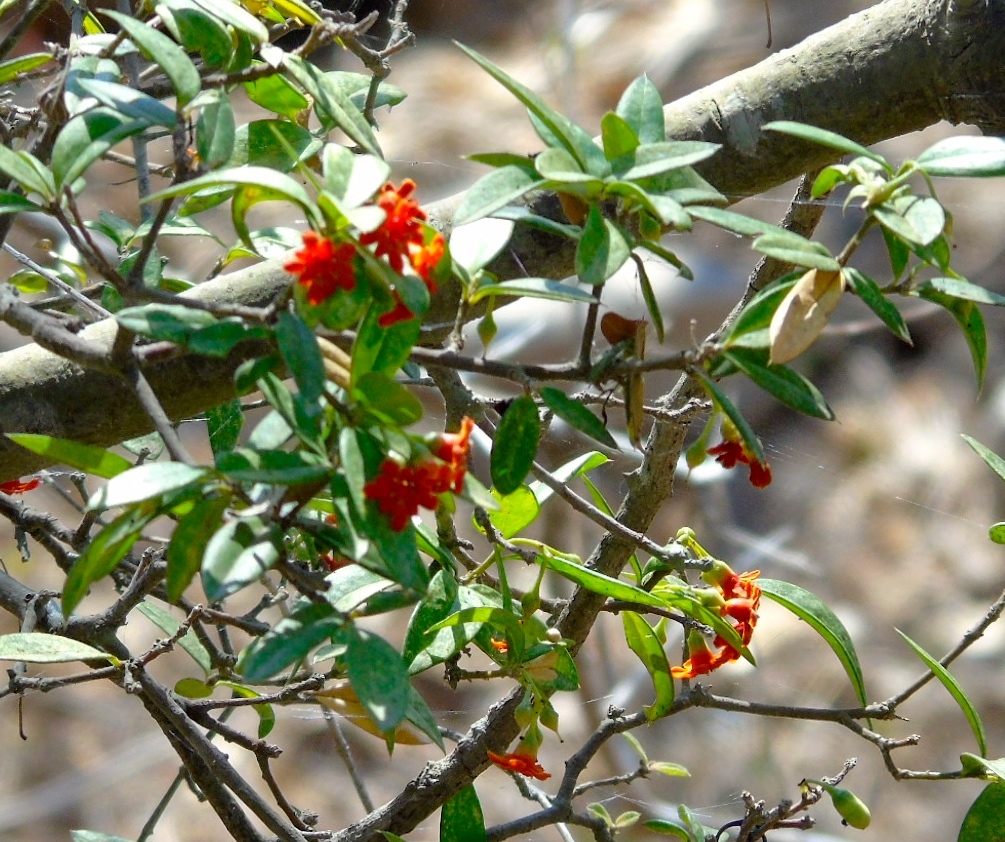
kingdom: Plantae
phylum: Tracheophyta
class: Magnoliopsida
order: Ericales
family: Primulaceae
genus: Bonellia
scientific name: Bonellia macrocarpa
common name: Primrose
